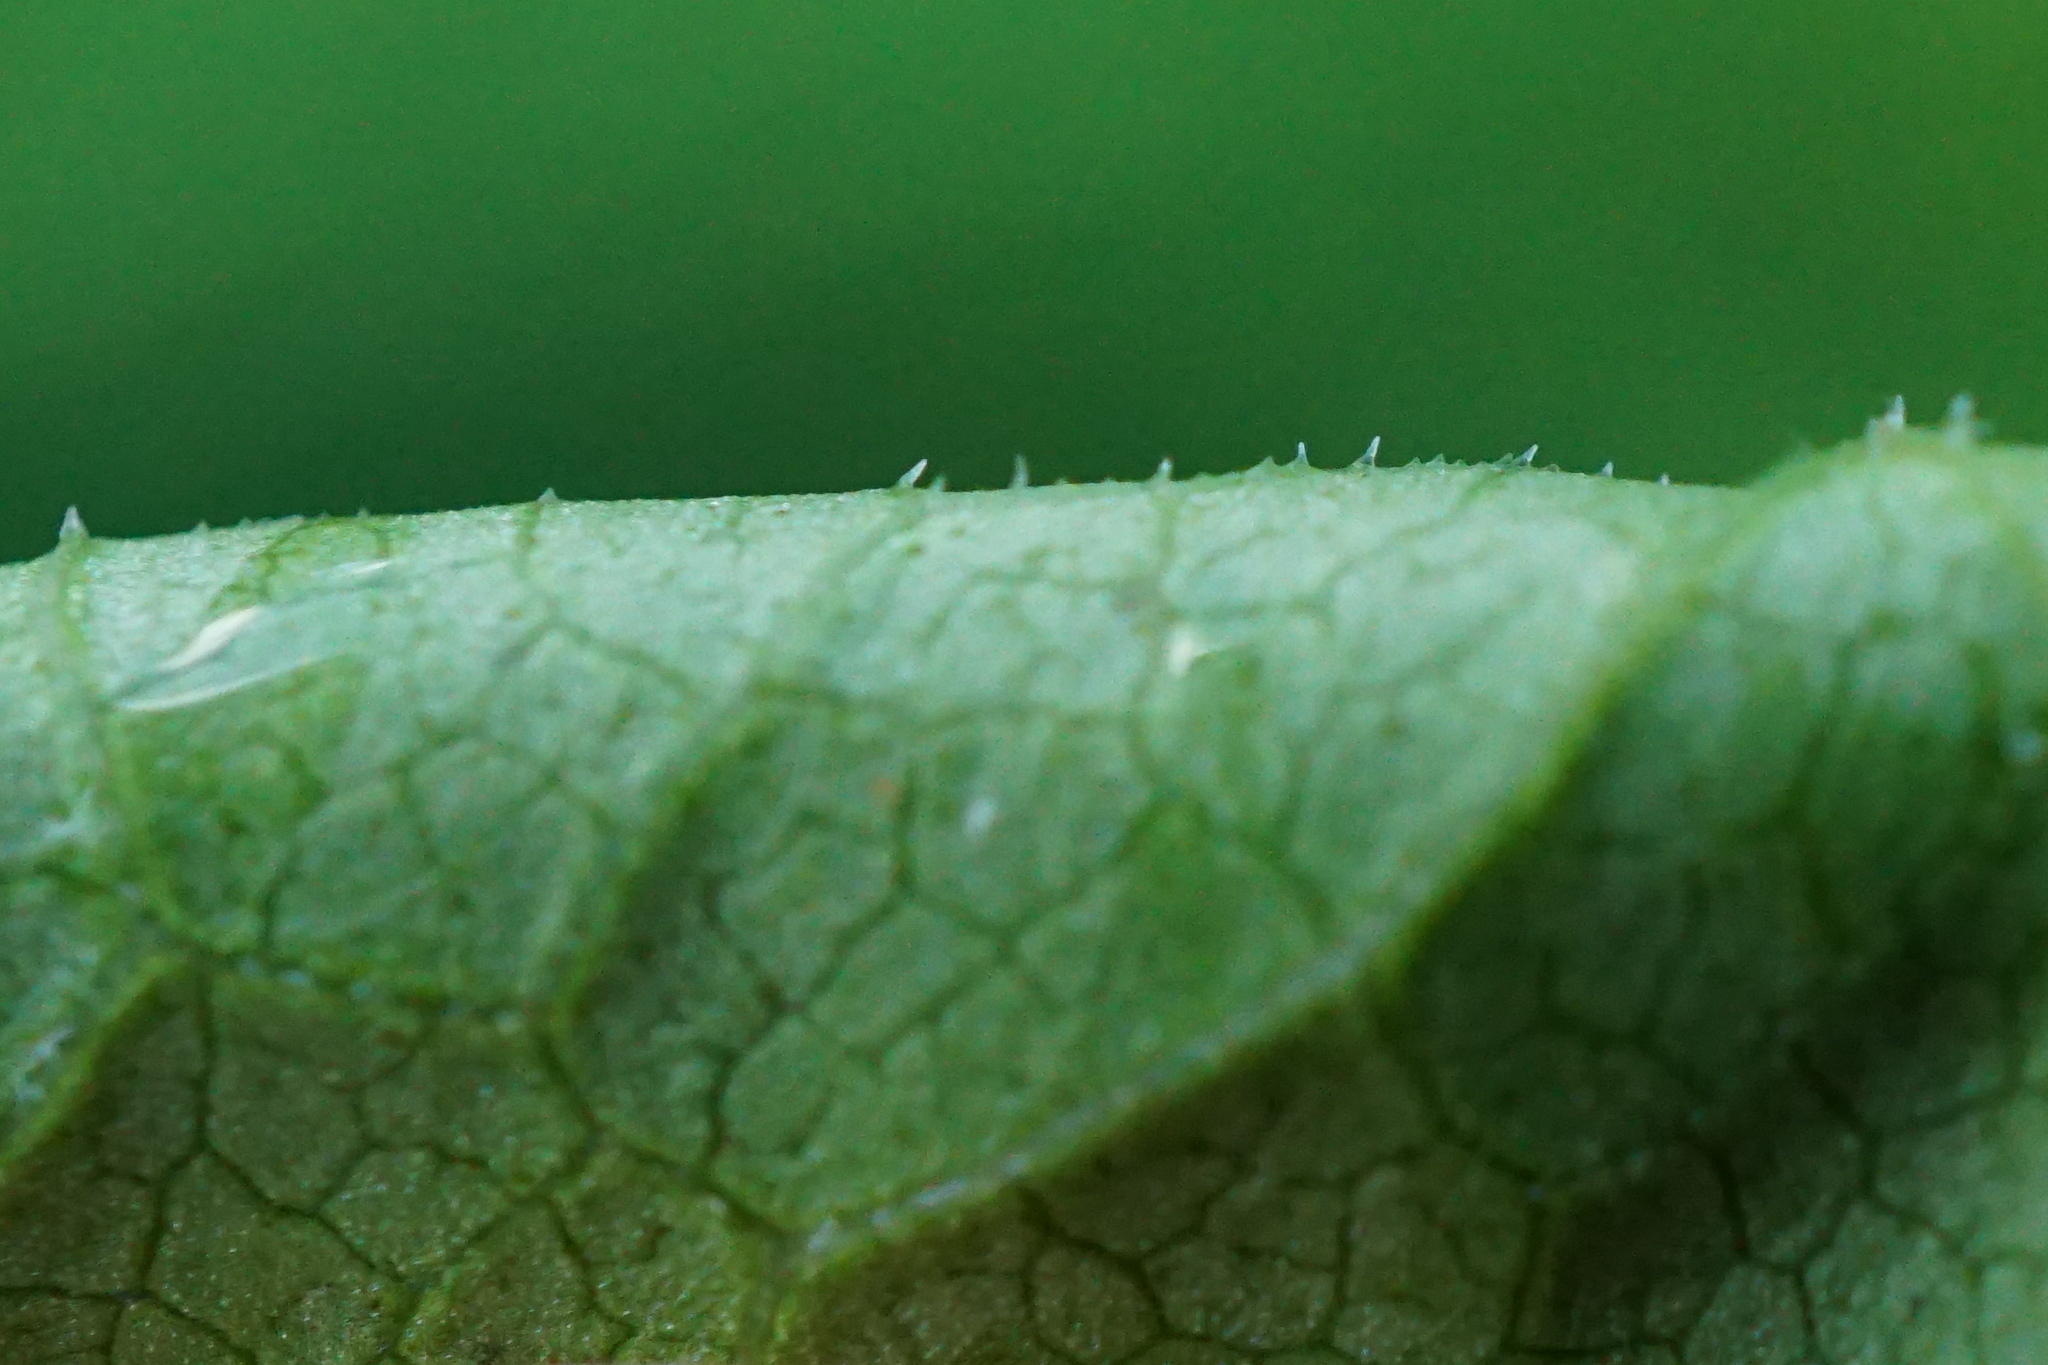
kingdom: Plantae
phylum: Tracheophyta
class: Magnoliopsida
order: Caryophyllales
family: Polygonaceae
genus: Reynoutria
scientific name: Reynoutria bohemica
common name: Bohemian knotweed
